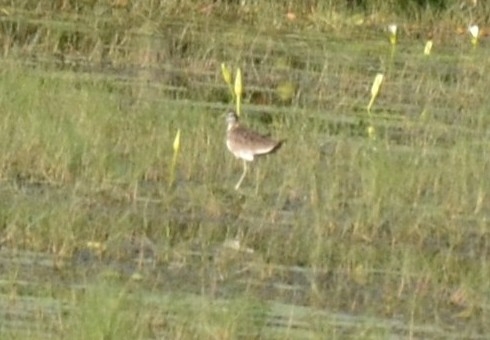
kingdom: Animalia
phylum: Chordata
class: Aves
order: Charadriiformes
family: Jacanidae
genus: Hydrophasianus
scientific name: Hydrophasianus chirurgus
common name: Pheasant-tailed jacana
